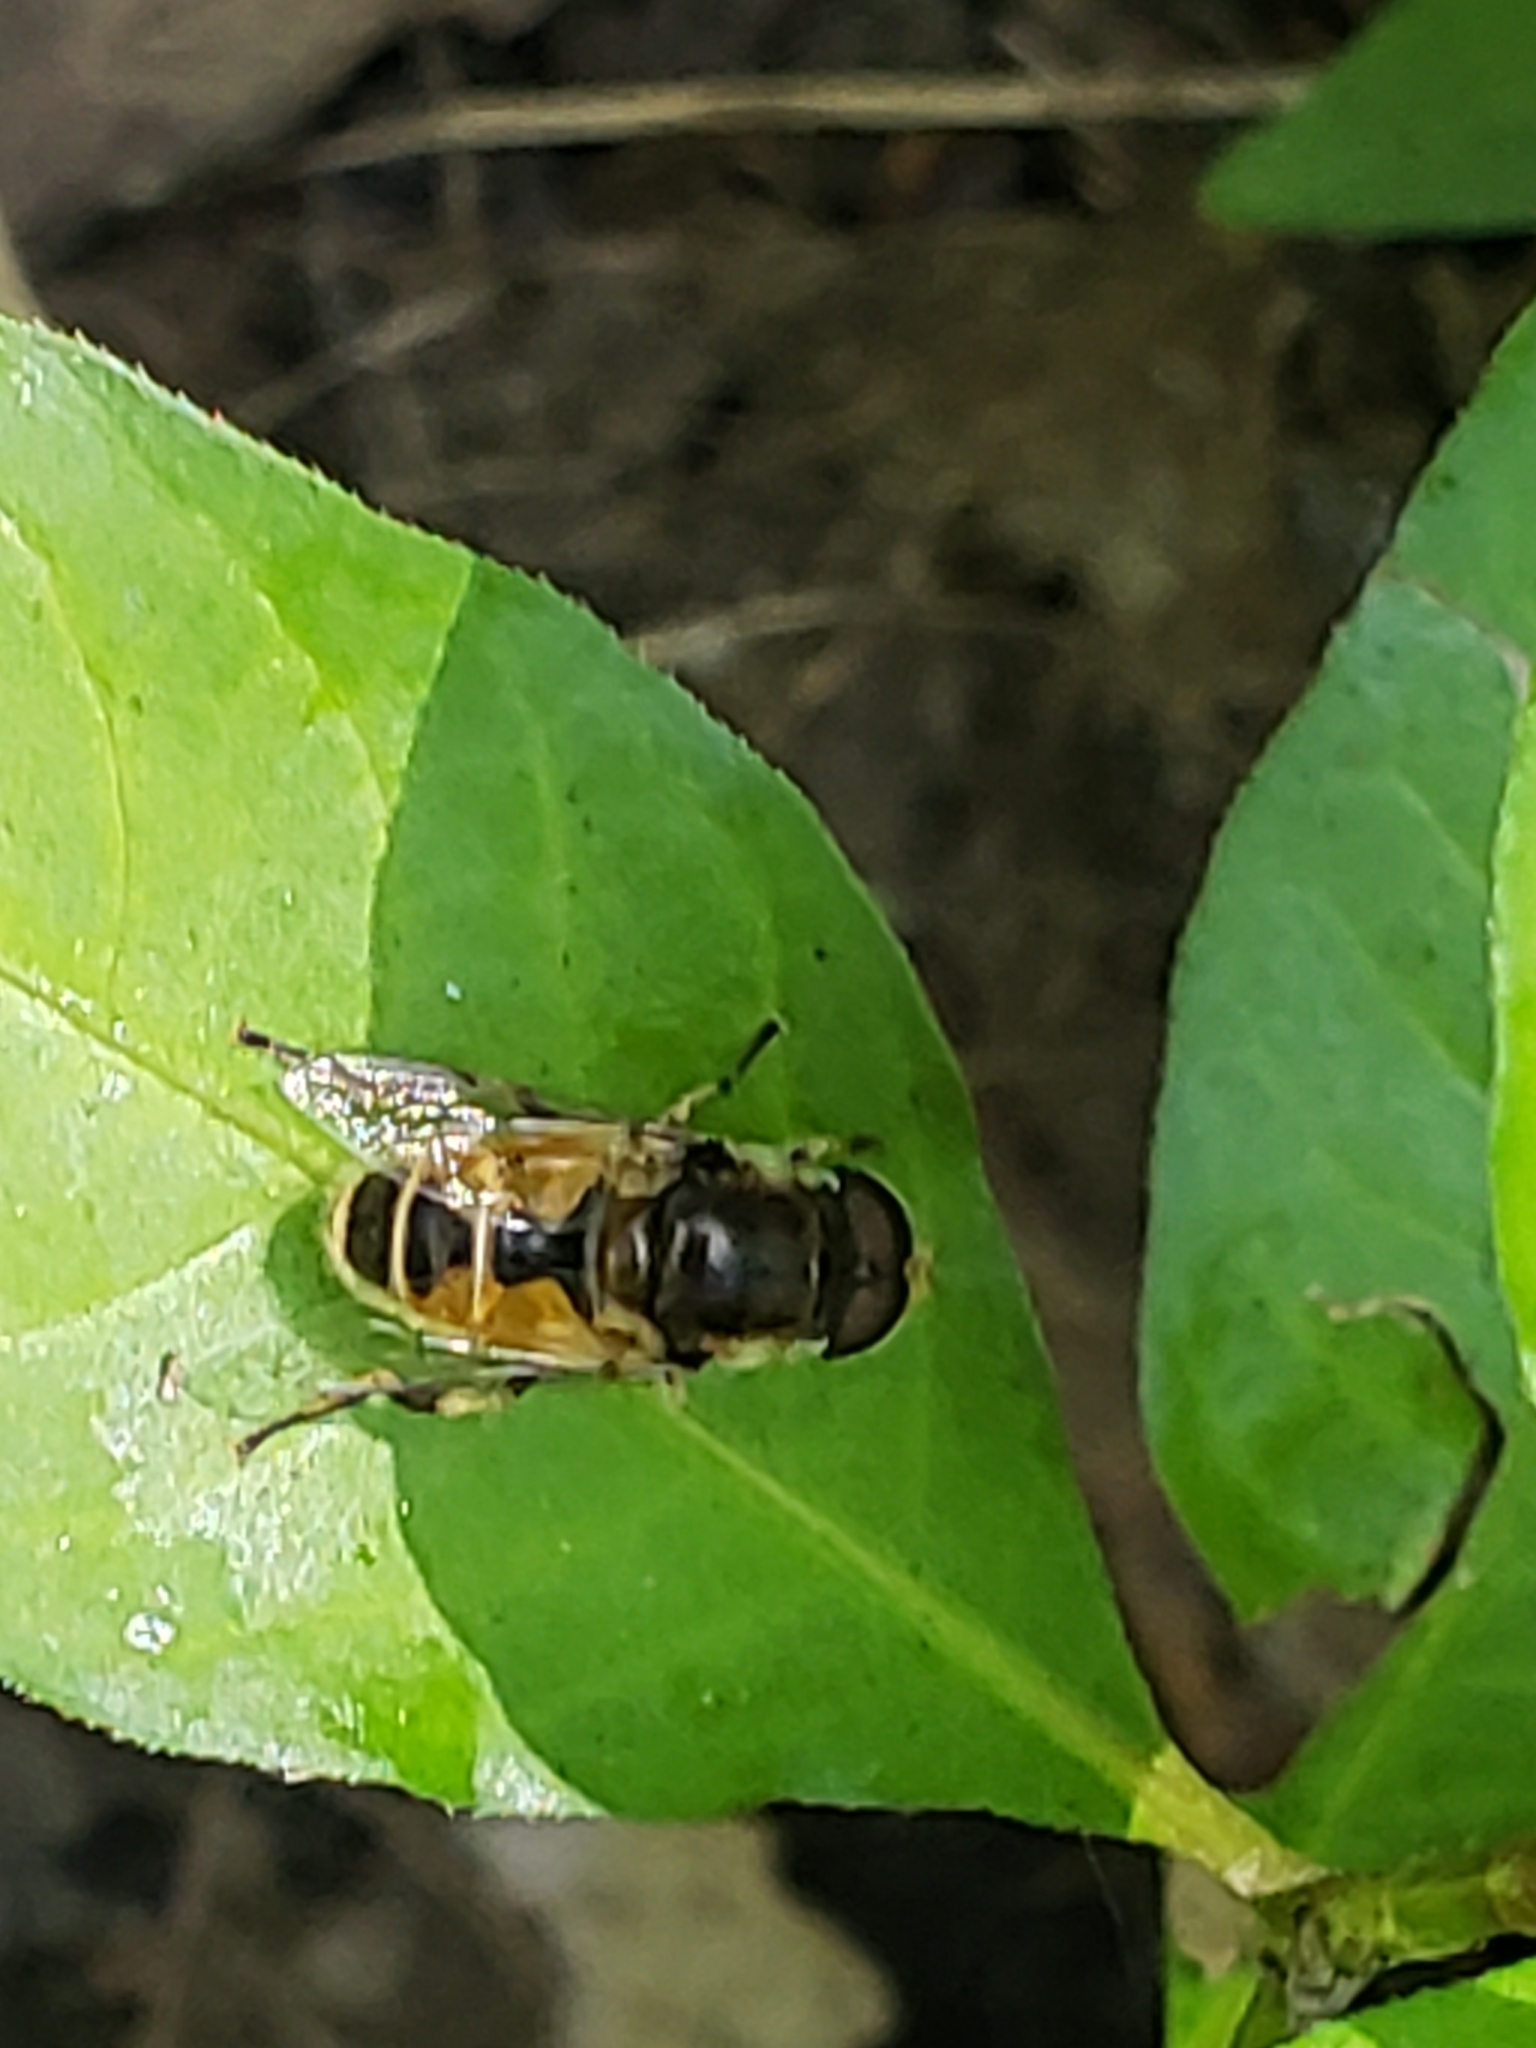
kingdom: Animalia
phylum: Arthropoda
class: Insecta
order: Diptera
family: Syrphidae
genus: Eristalis
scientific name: Eristalis arbustorum
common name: Hover fly
